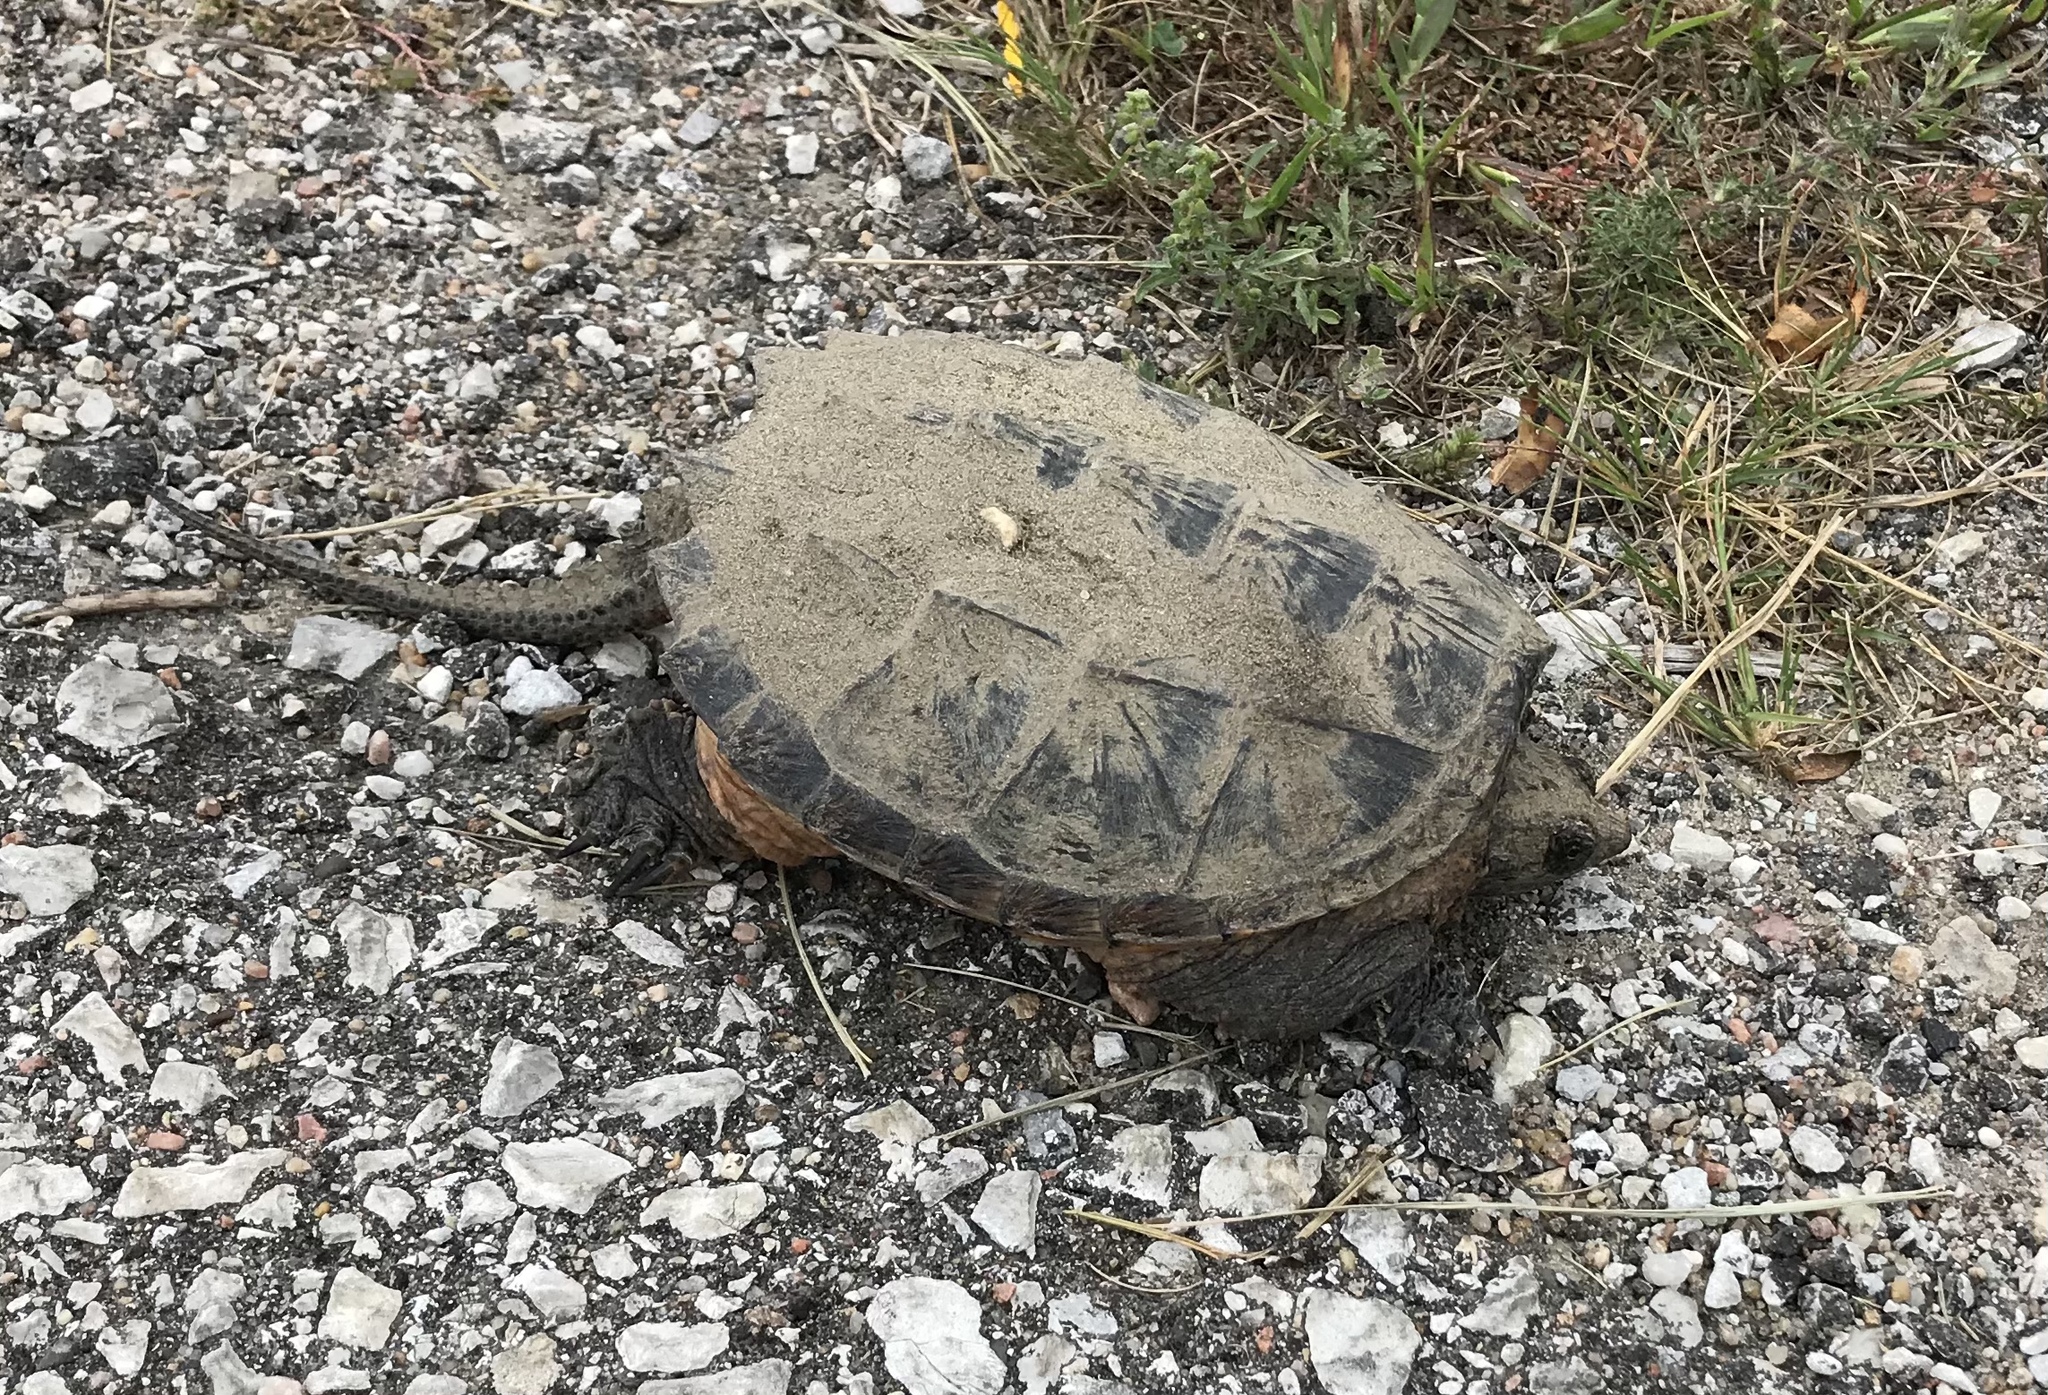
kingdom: Animalia
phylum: Chordata
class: Testudines
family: Chelydridae
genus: Chelydra
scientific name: Chelydra serpentina
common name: Common snapping turtle
